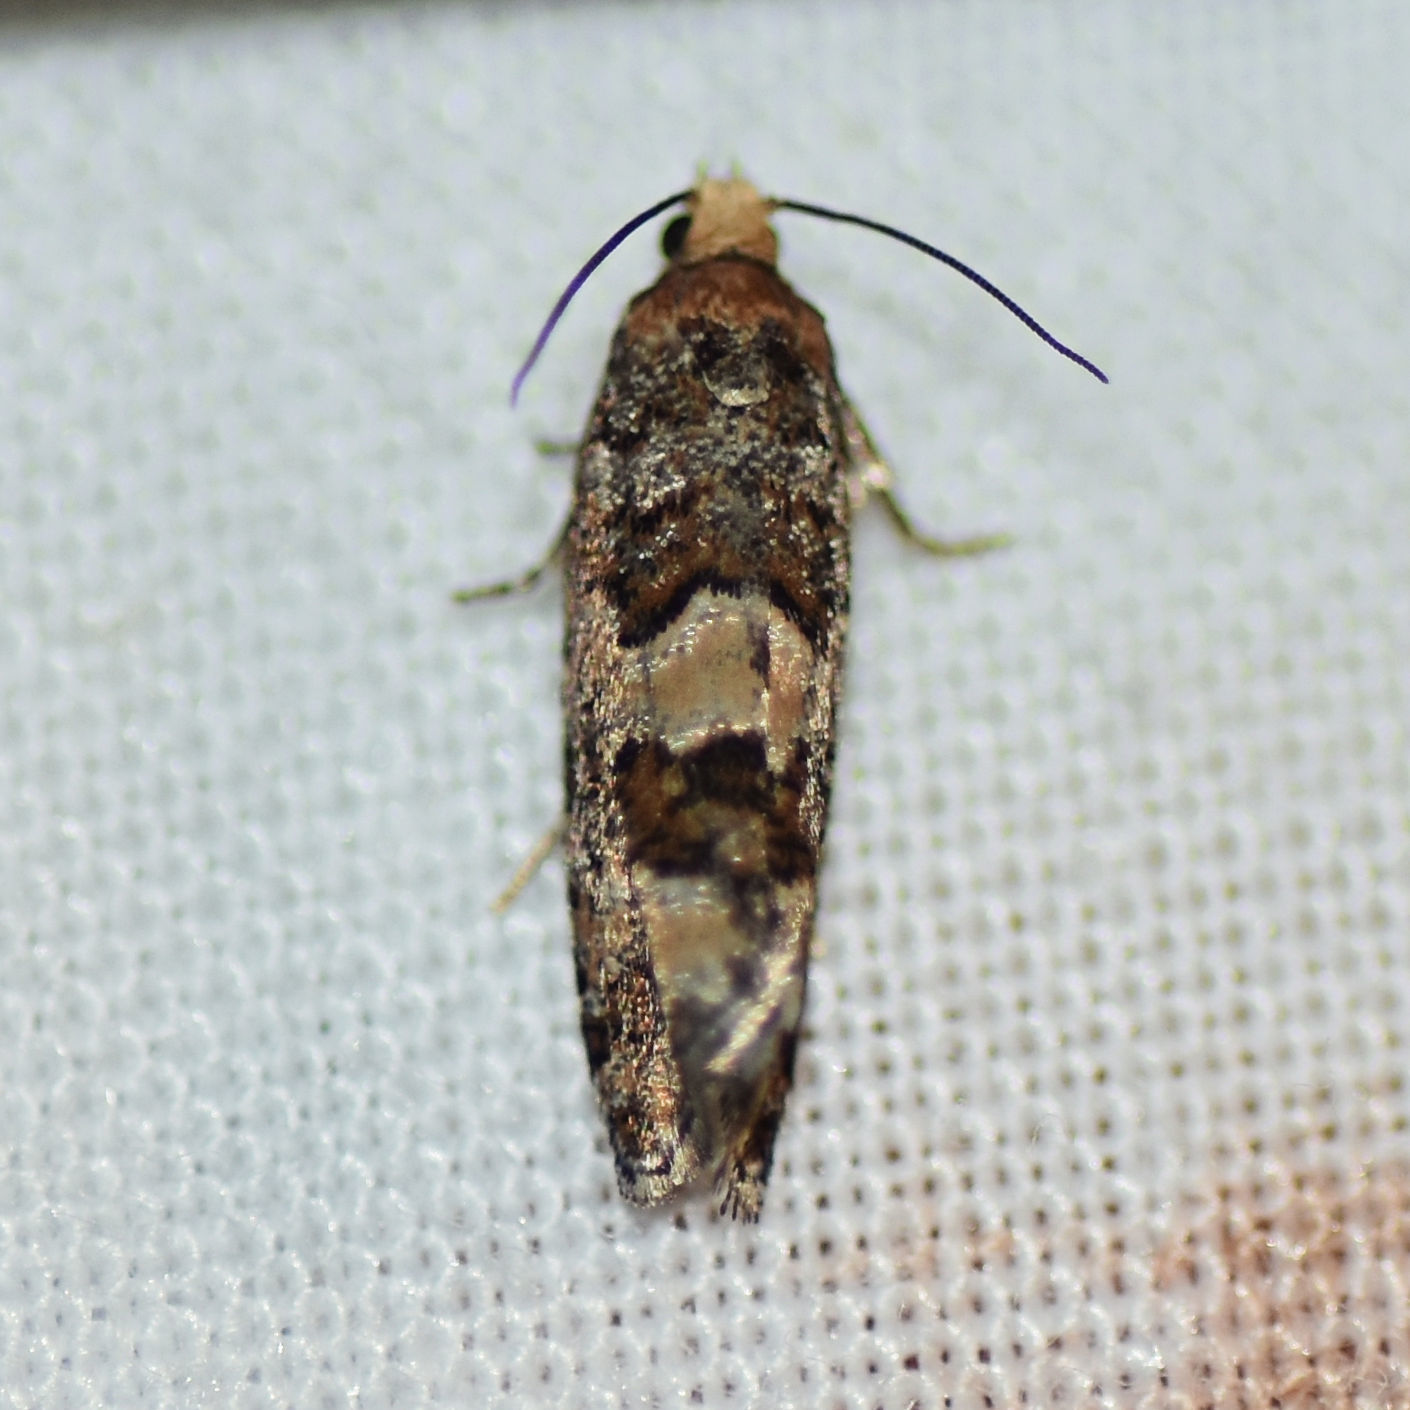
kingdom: Animalia
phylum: Arthropoda
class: Insecta
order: Lepidoptera
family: Tortricidae
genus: Eucopina
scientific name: Eucopina tocullionana
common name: White pinecone borer moth
